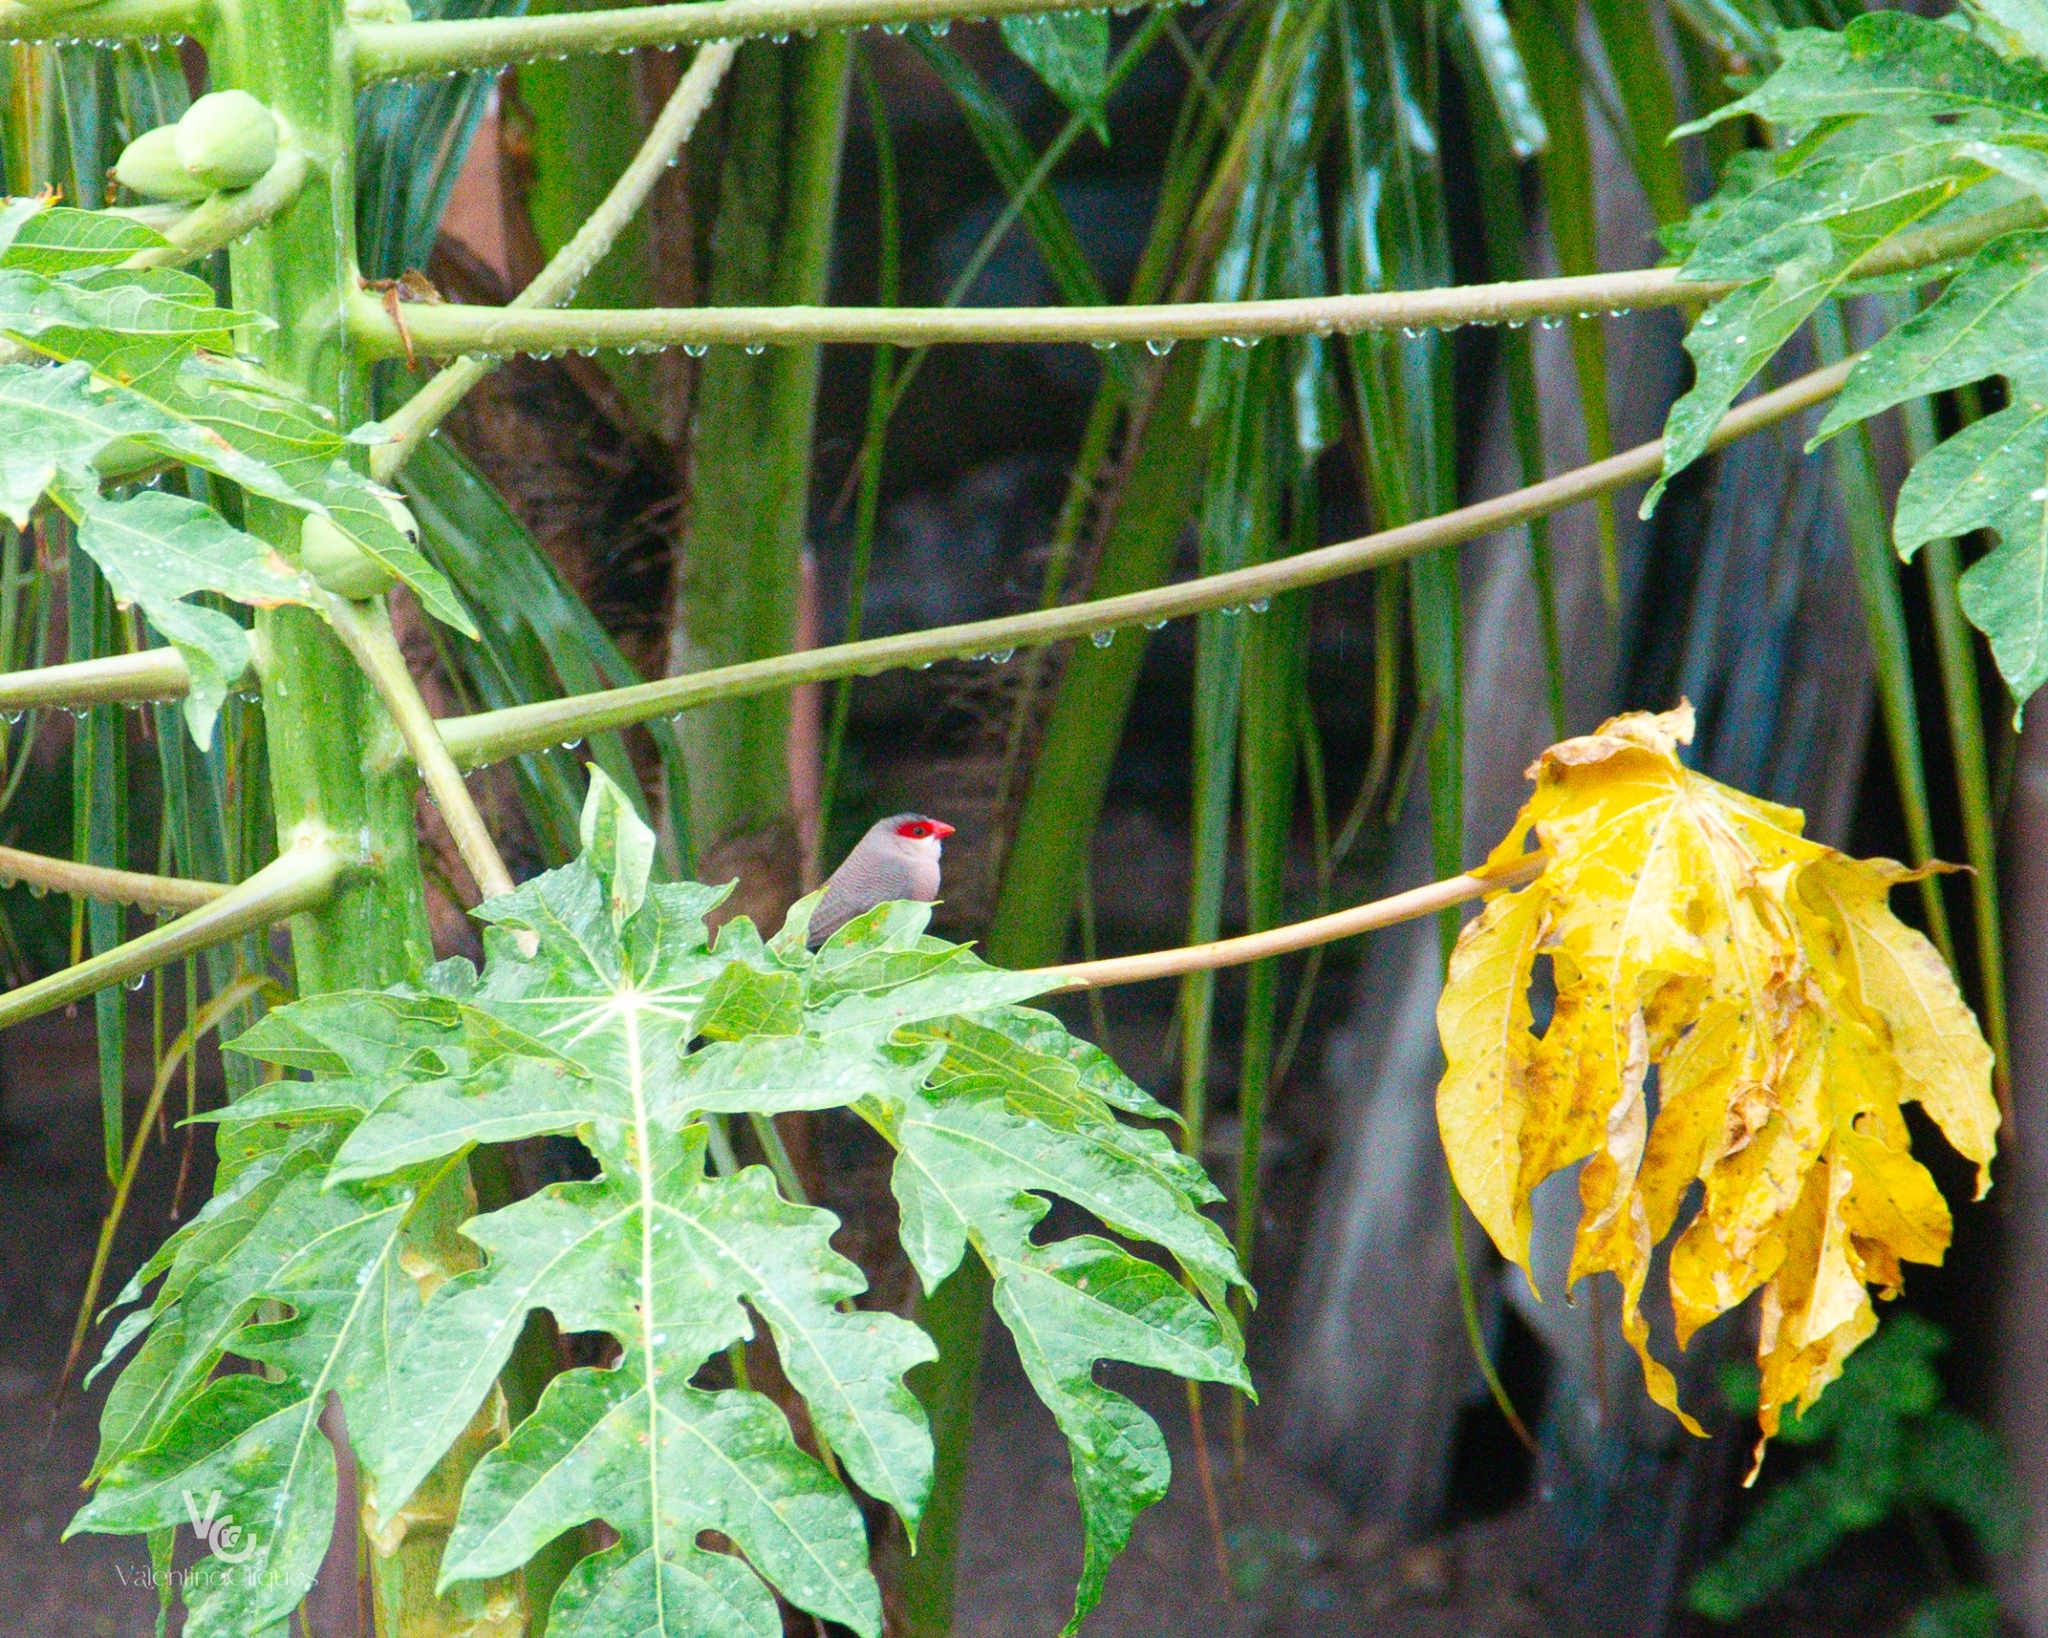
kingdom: Animalia
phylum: Chordata
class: Aves
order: Passeriformes
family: Estrildidae
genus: Estrilda
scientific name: Estrilda astrild
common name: Common waxbill
